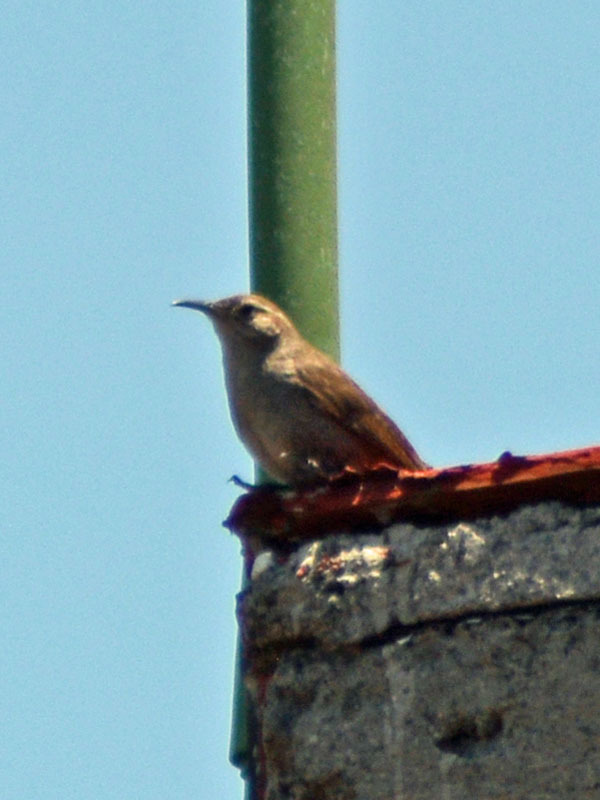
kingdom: Animalia
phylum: Chordata
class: Aves
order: Passeriformes
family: Troglodytidae
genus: Thryomanes
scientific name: Thryomanes bewickii
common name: Bewick's wren
